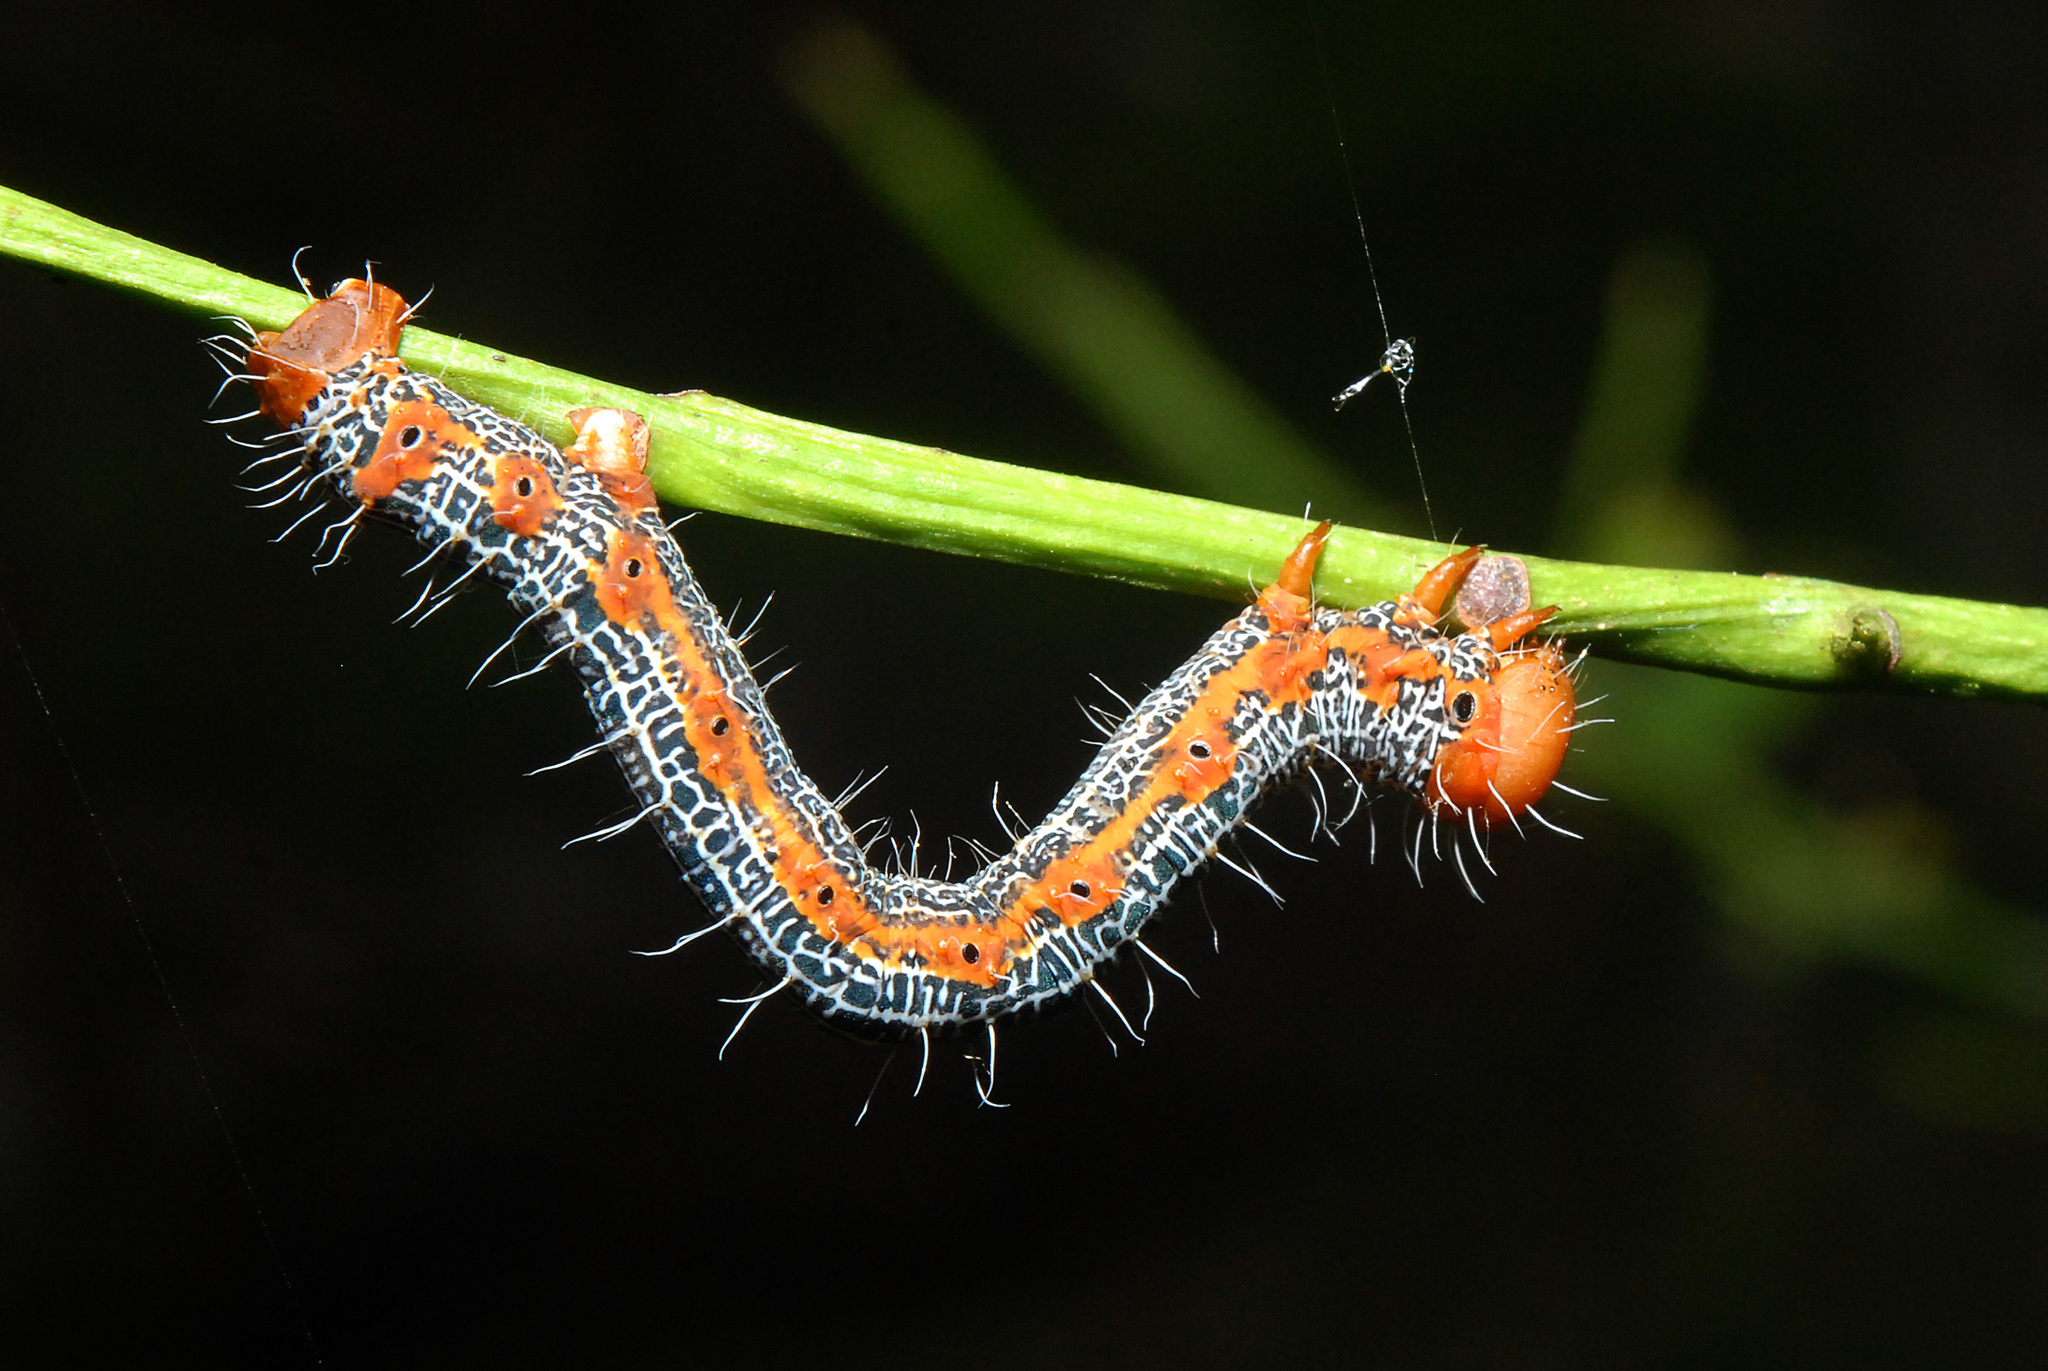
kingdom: Animalia
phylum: Arthropoda
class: Insecta
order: Lepidoptera
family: Geometridae
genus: Milionia
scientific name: Milionia basalis
